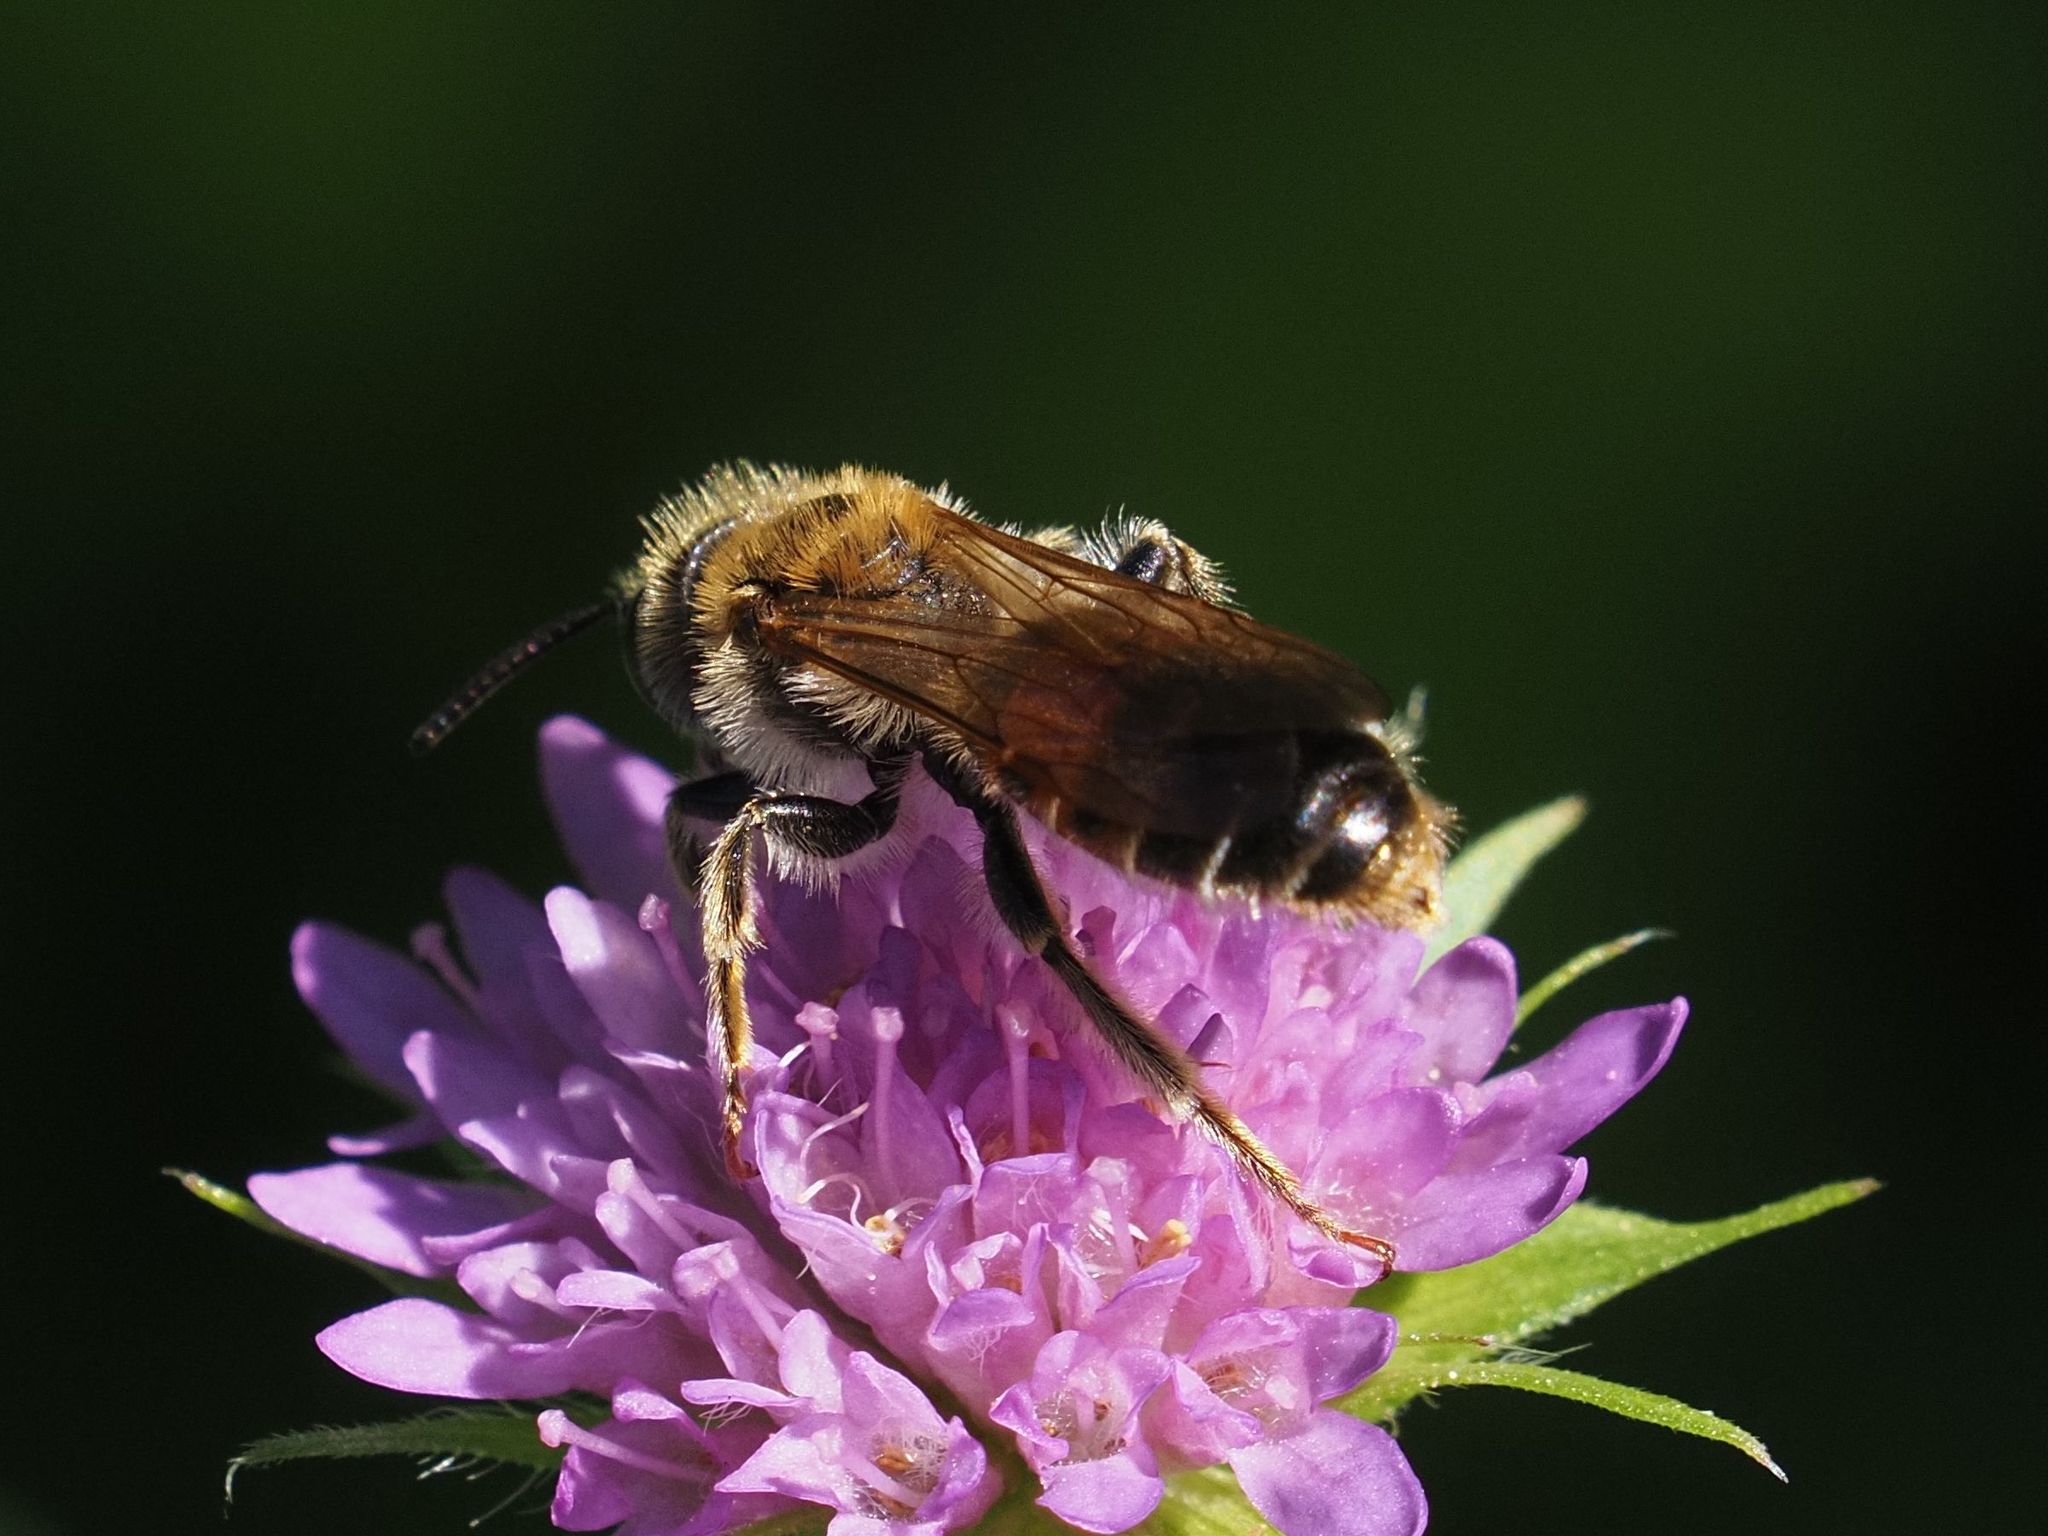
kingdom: Animalia
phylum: Arthropoda
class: Insecta
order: Hymenoptera
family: Andrenidae
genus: Andrena
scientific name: Andrena hattorfiana
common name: Large scabious mining bee
